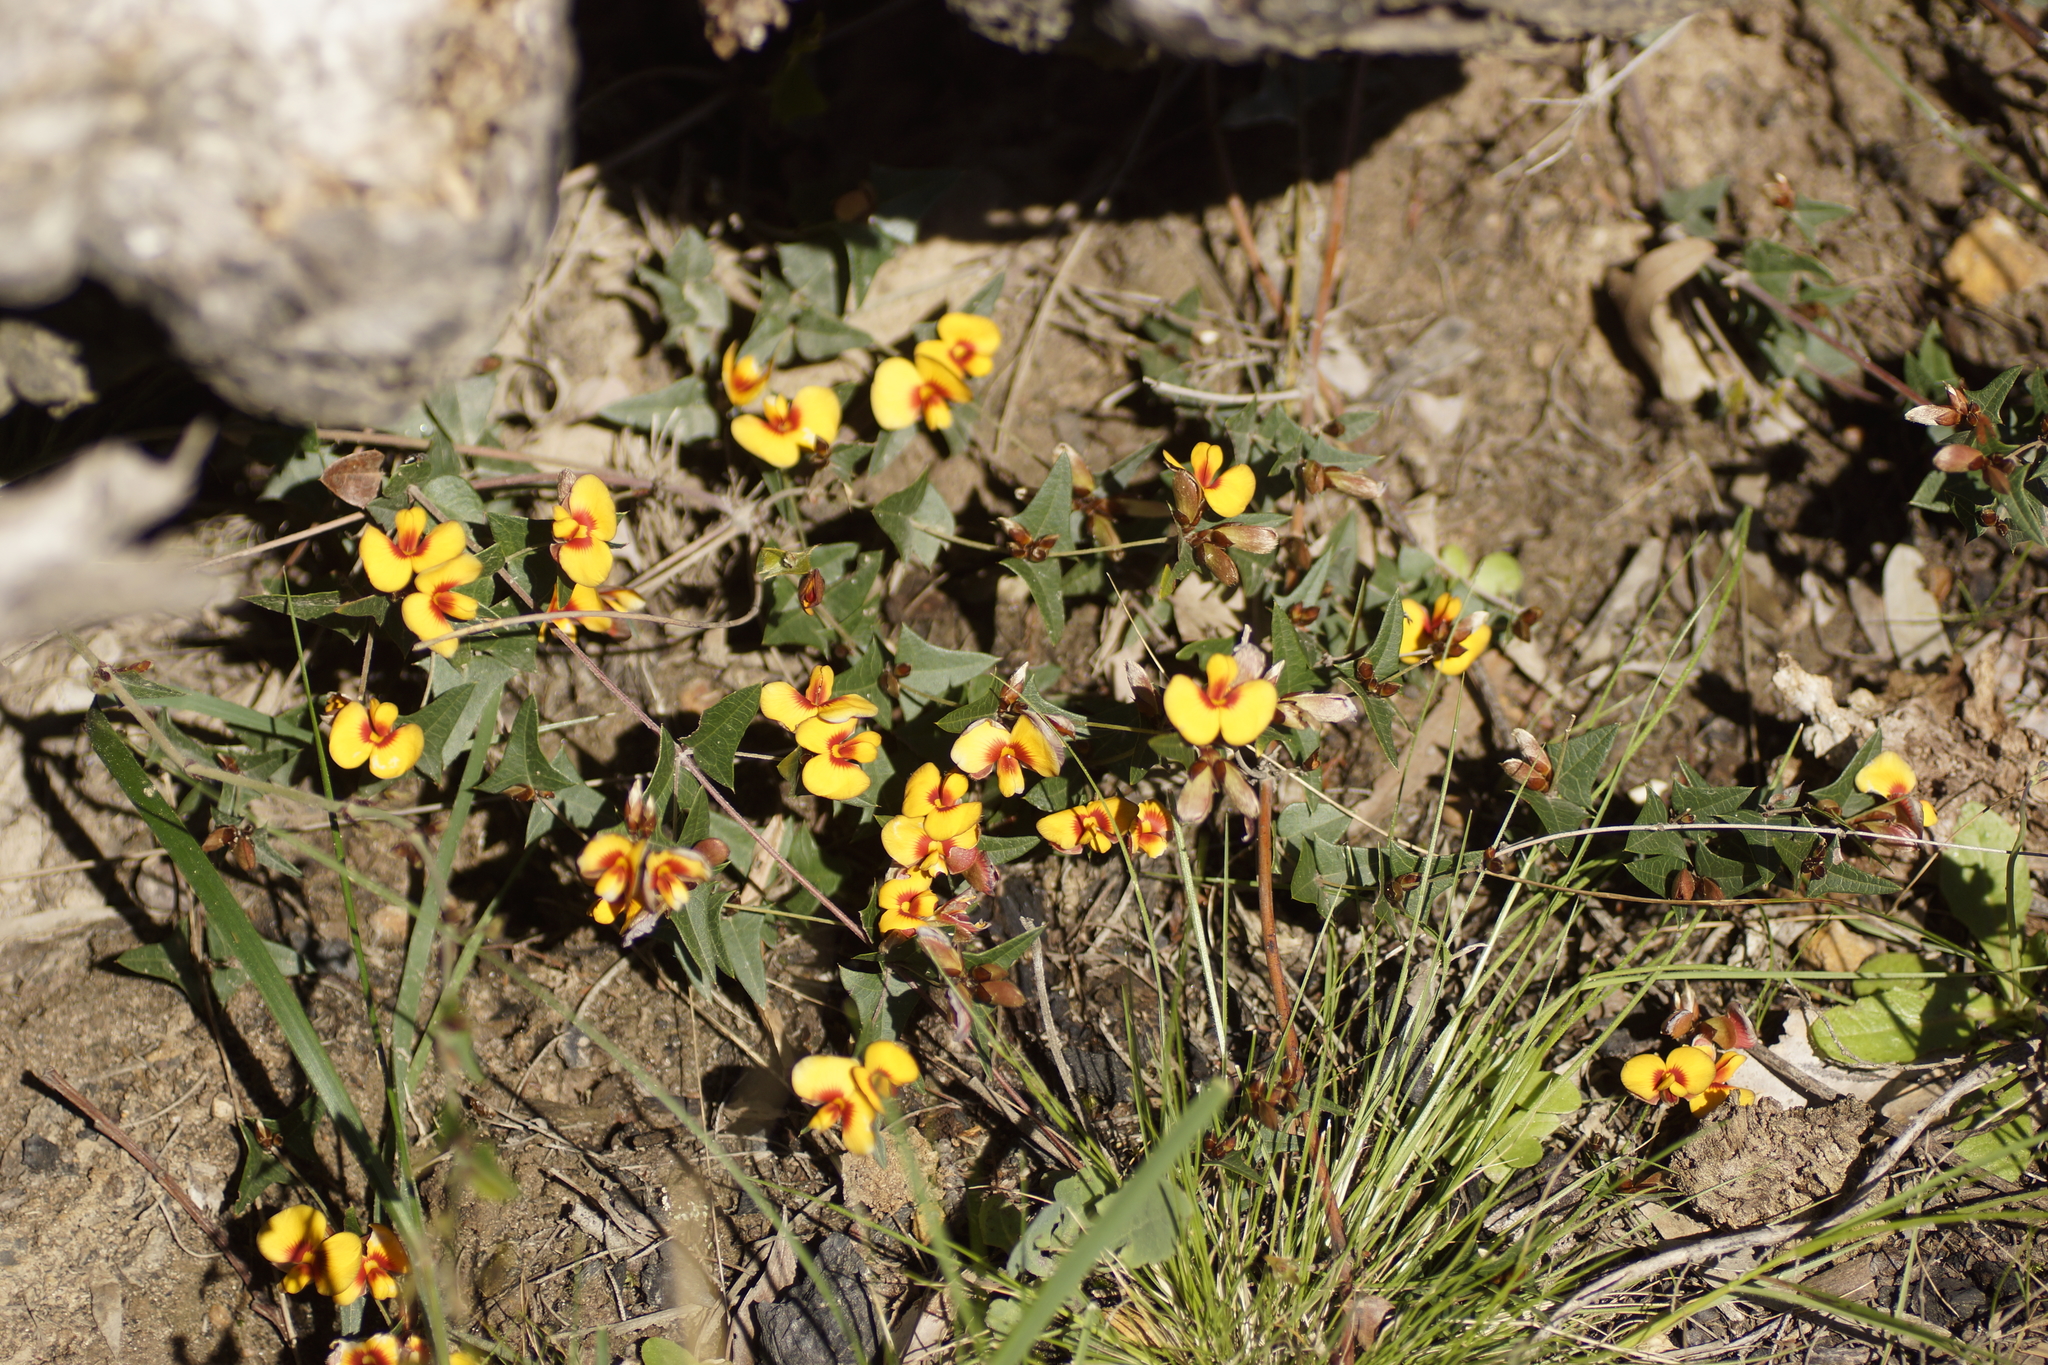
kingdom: Plantae
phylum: Tracheophyta
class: Magnoliopsida
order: Fabales
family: Fabaceae
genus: Platylobium
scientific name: Platylobium obtusangulum
